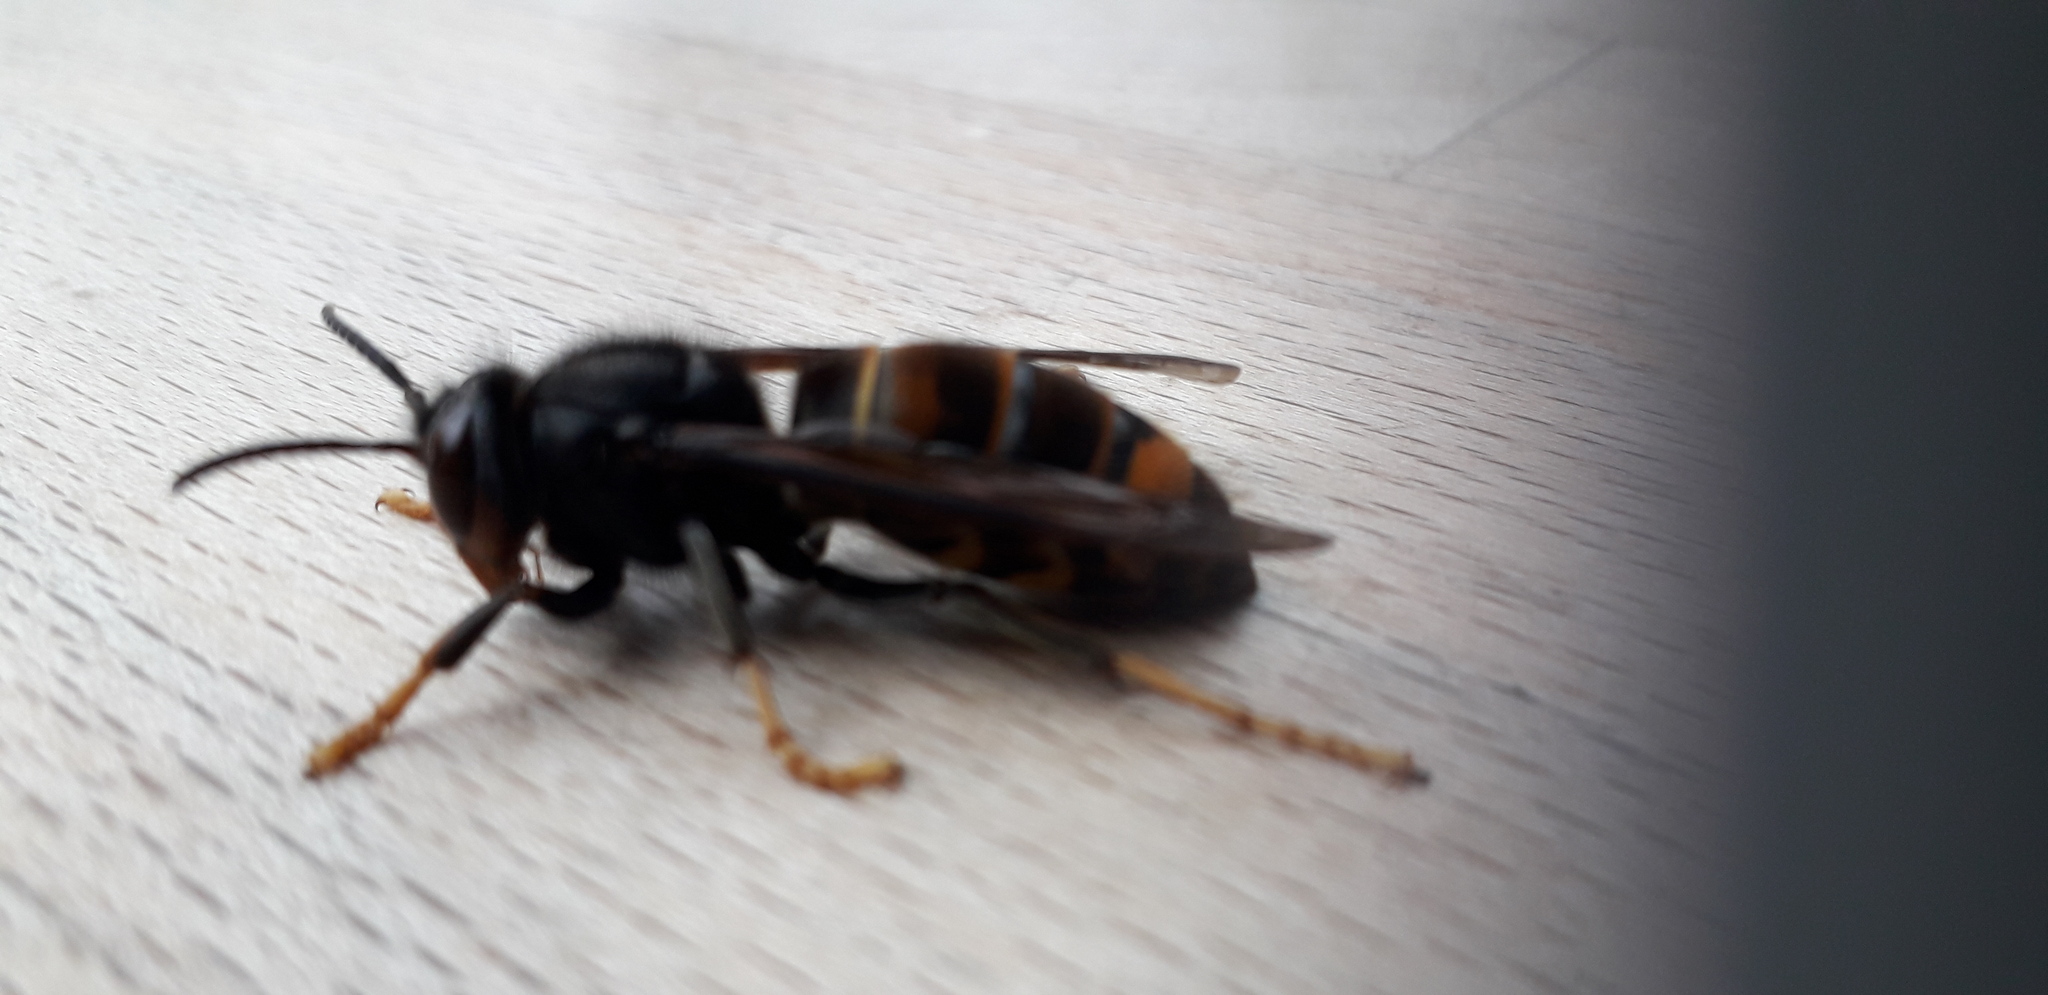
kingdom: Animalia
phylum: Arthropoda
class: Insecta
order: Hymenoptera
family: Vespidae
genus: Vespa
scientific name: Vespa velutina
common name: Asian hornet
